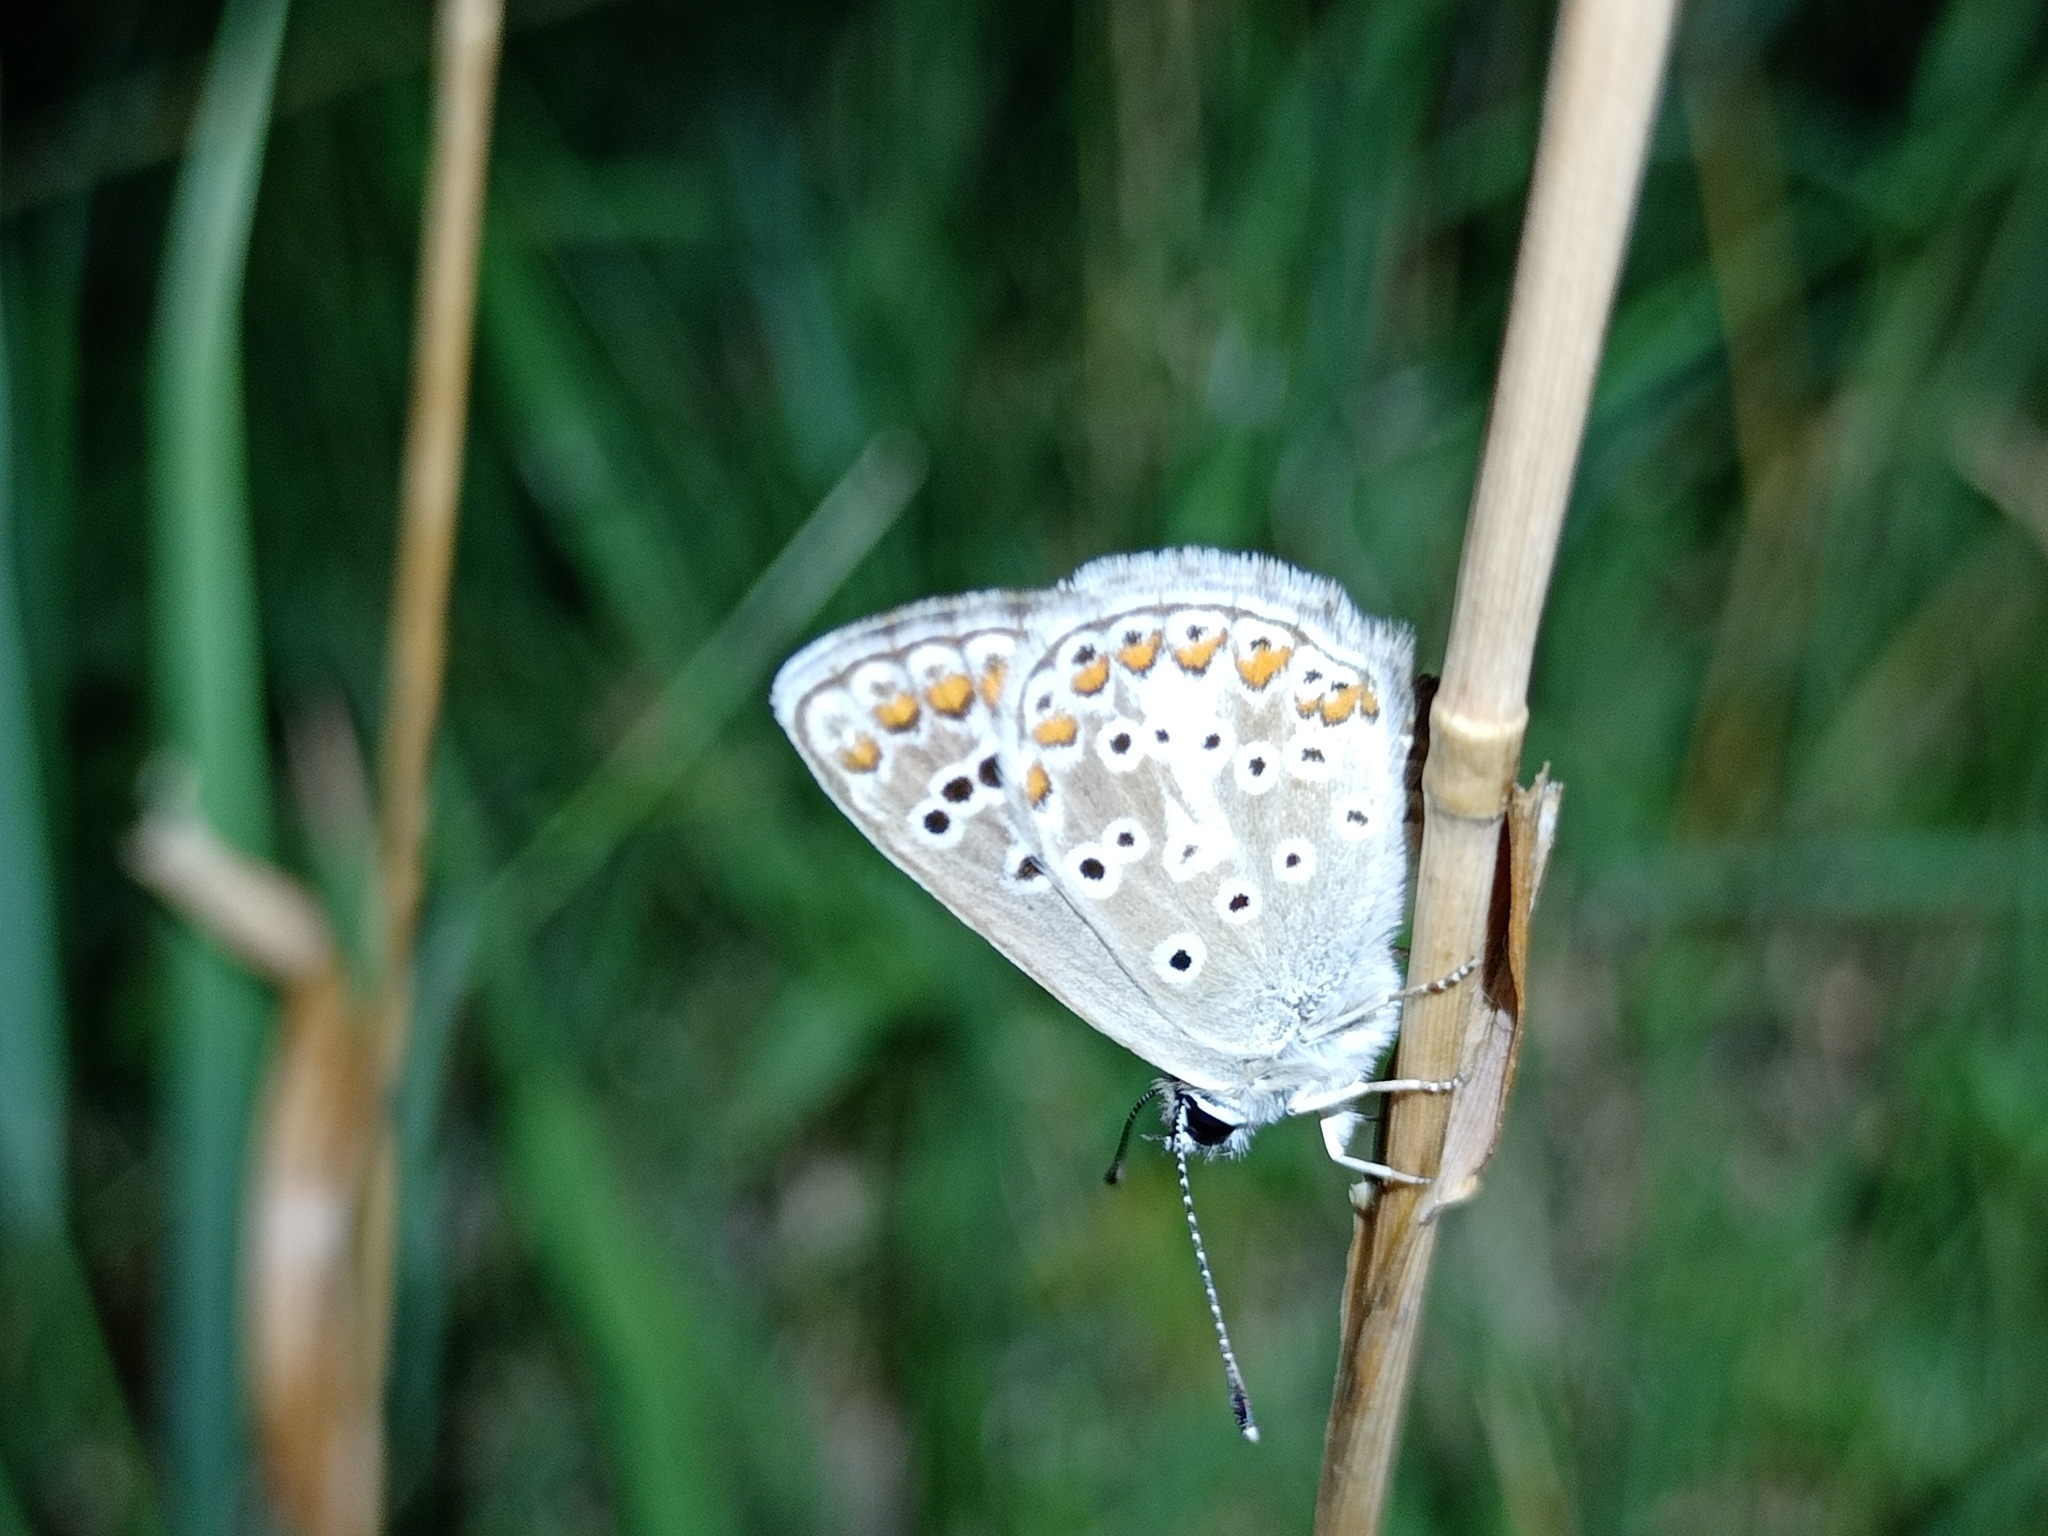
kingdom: Animalia
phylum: Arthropoda
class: Insecta
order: Lepidoptera
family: Lycaenidae
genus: Aricia
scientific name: Aricia agestis
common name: Brown argus
